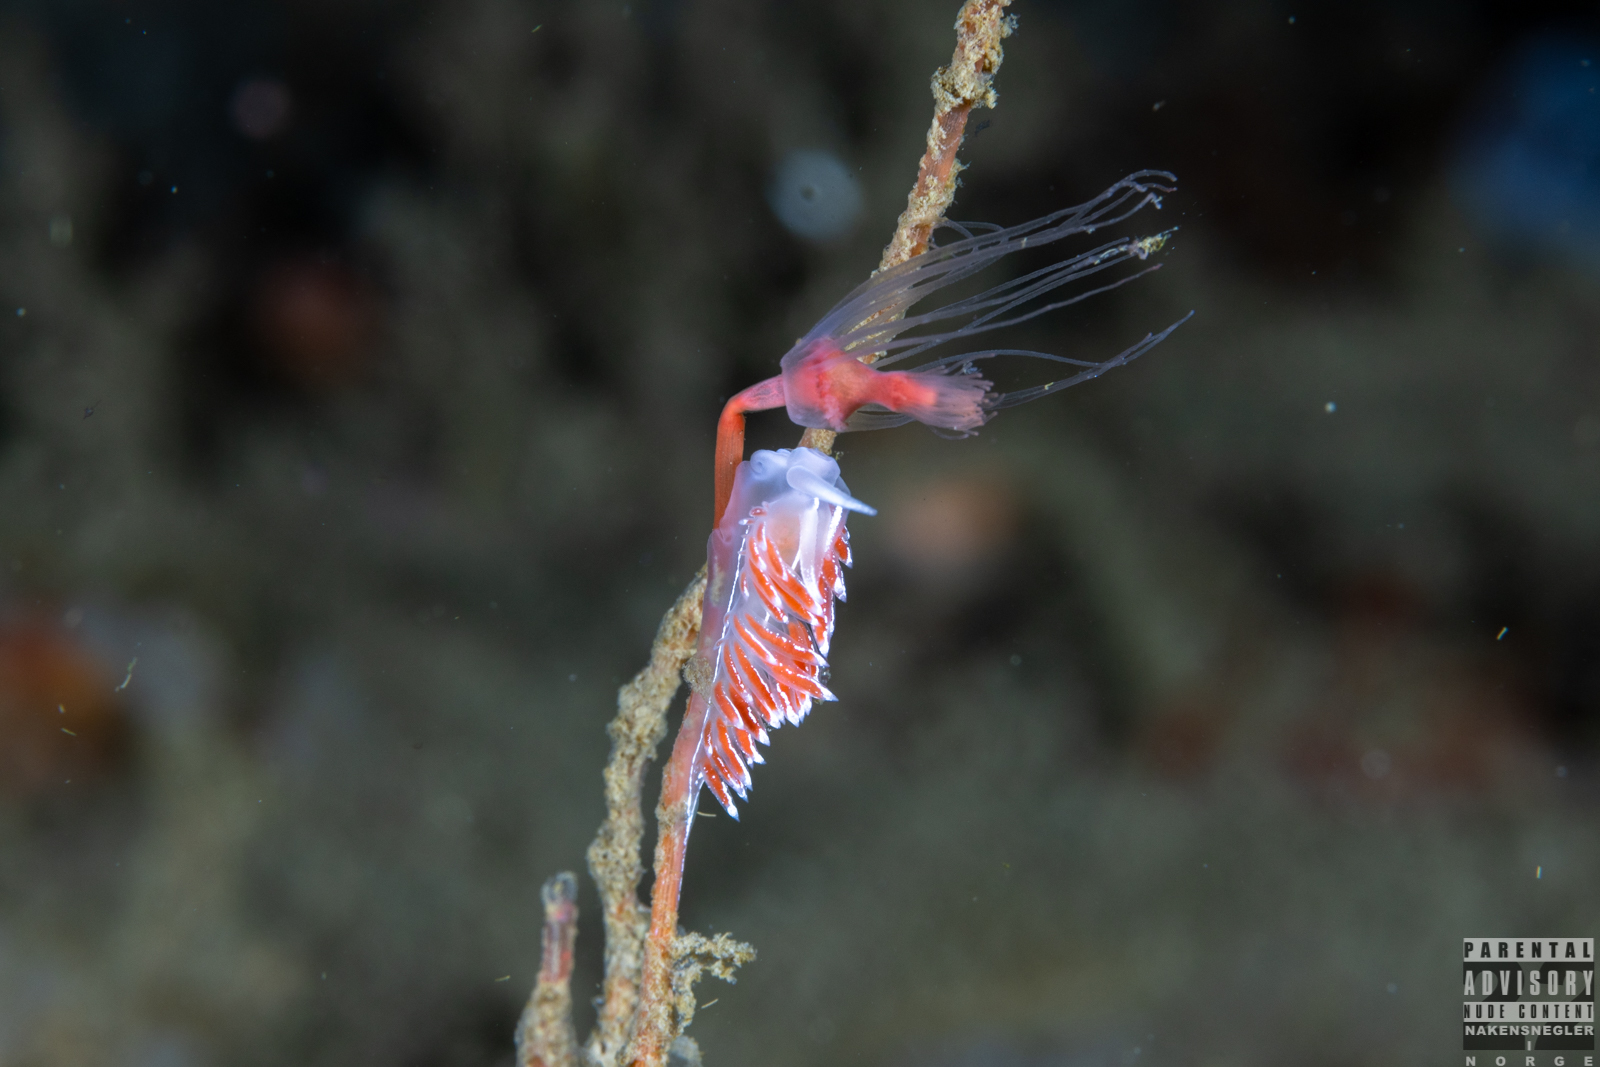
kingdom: Animalia
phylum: Mollusca
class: Gastropoda
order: Nudibranchia
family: Coryphellidae
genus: Coryphella
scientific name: Coryphella lineata
